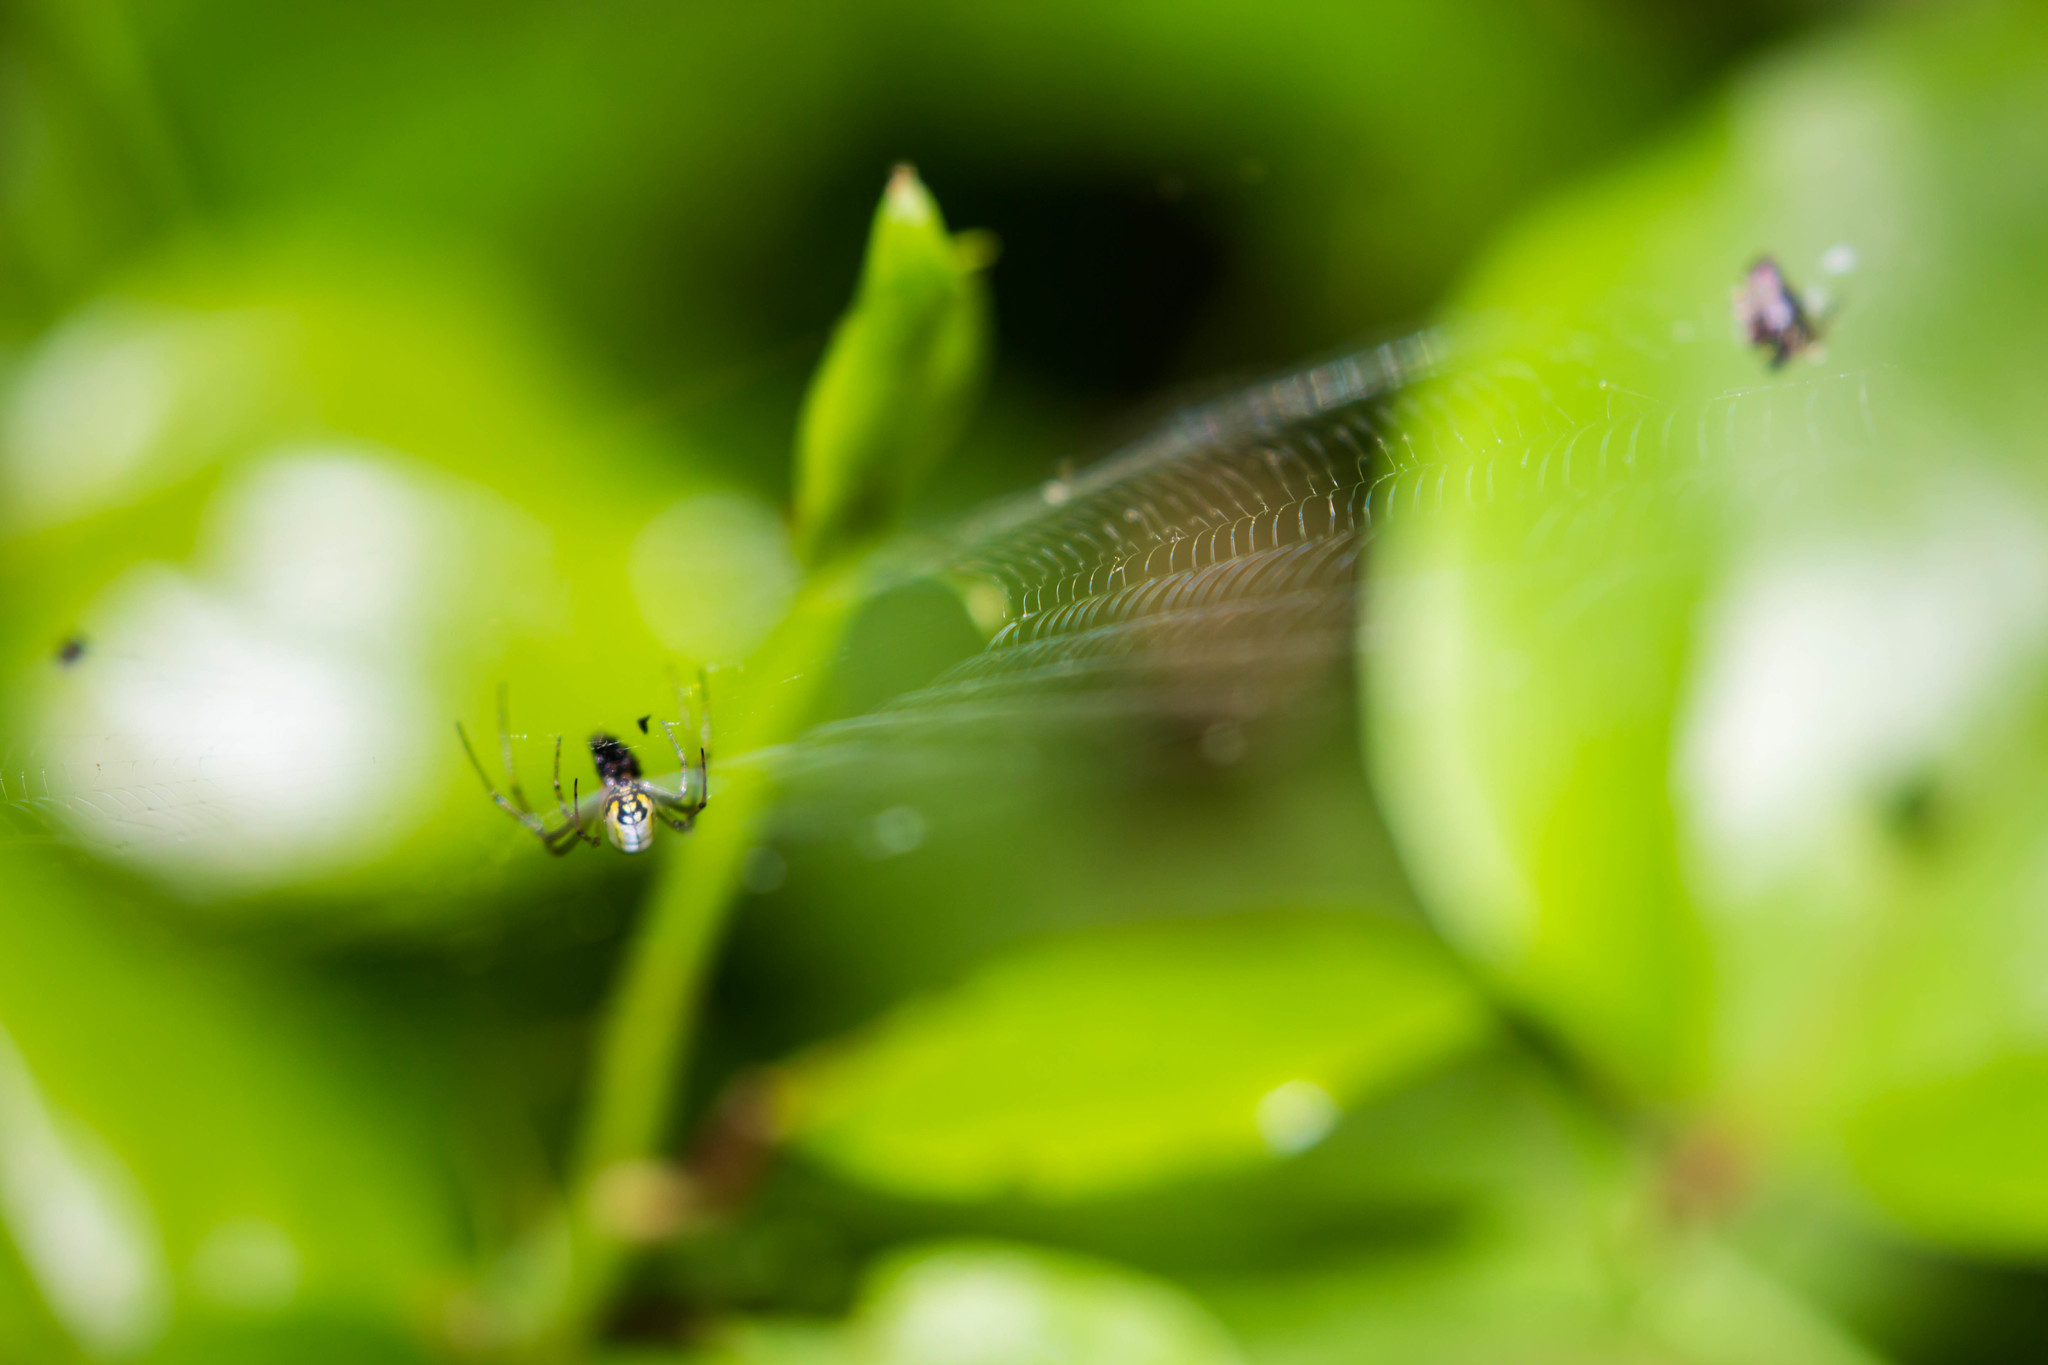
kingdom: Animalia
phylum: Arthropoda
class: Arachnida
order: Araneae
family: Tetragnathidae
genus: Leucauge
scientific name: Leucauge venusta
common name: Longjawed orb weavers
